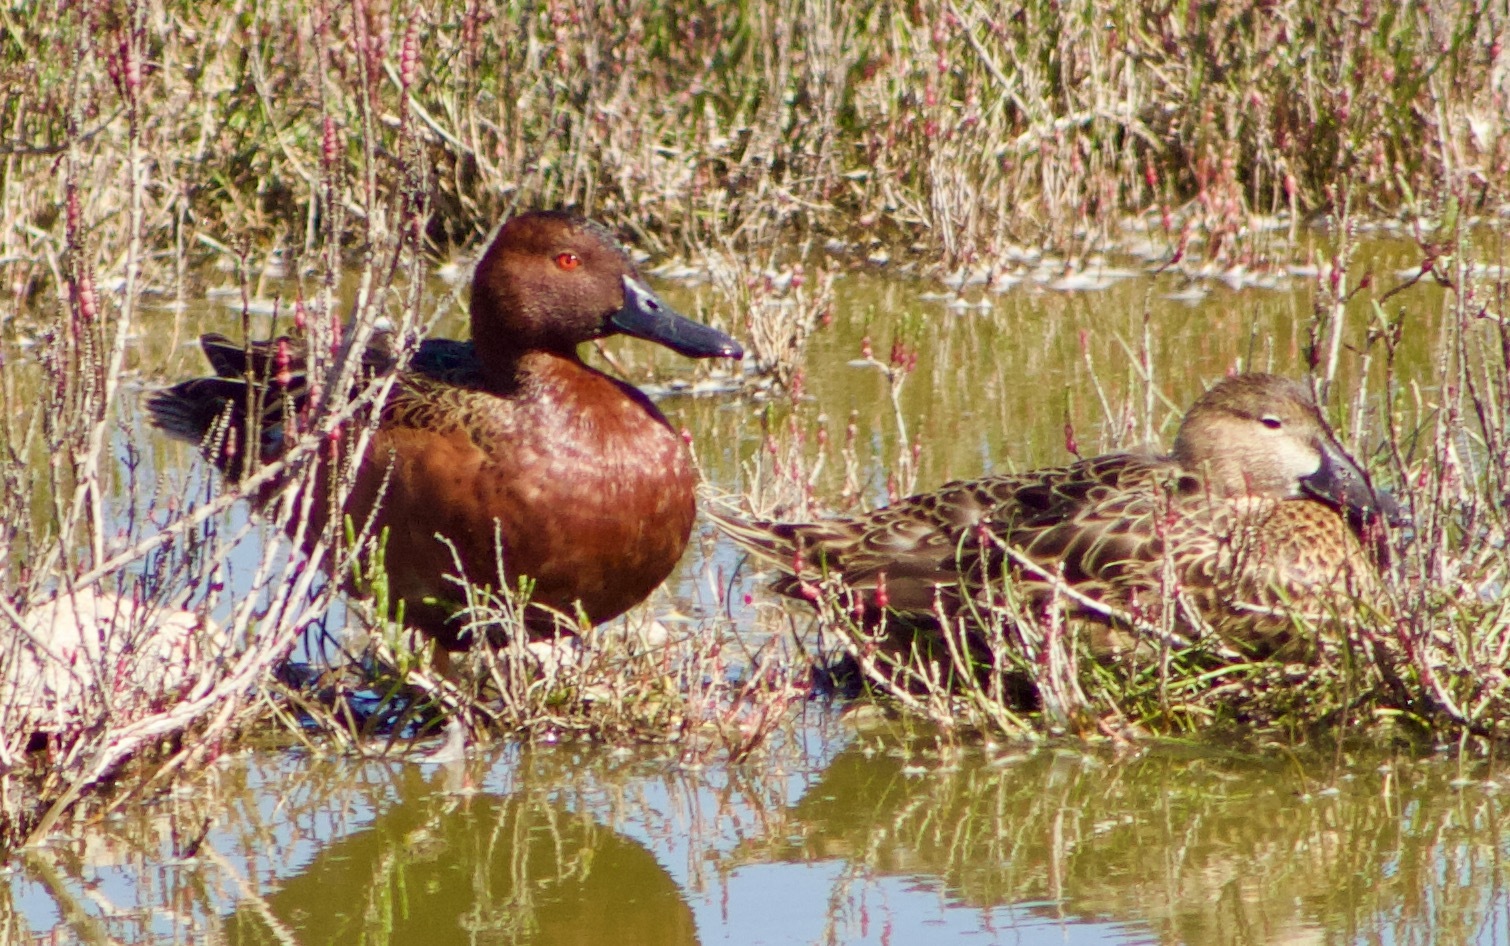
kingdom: Animalia
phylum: Chordata
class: Aves
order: Anseriformes
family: Anatidae
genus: Spatula
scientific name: Spatula cyanoptera
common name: Cinnamon teal
